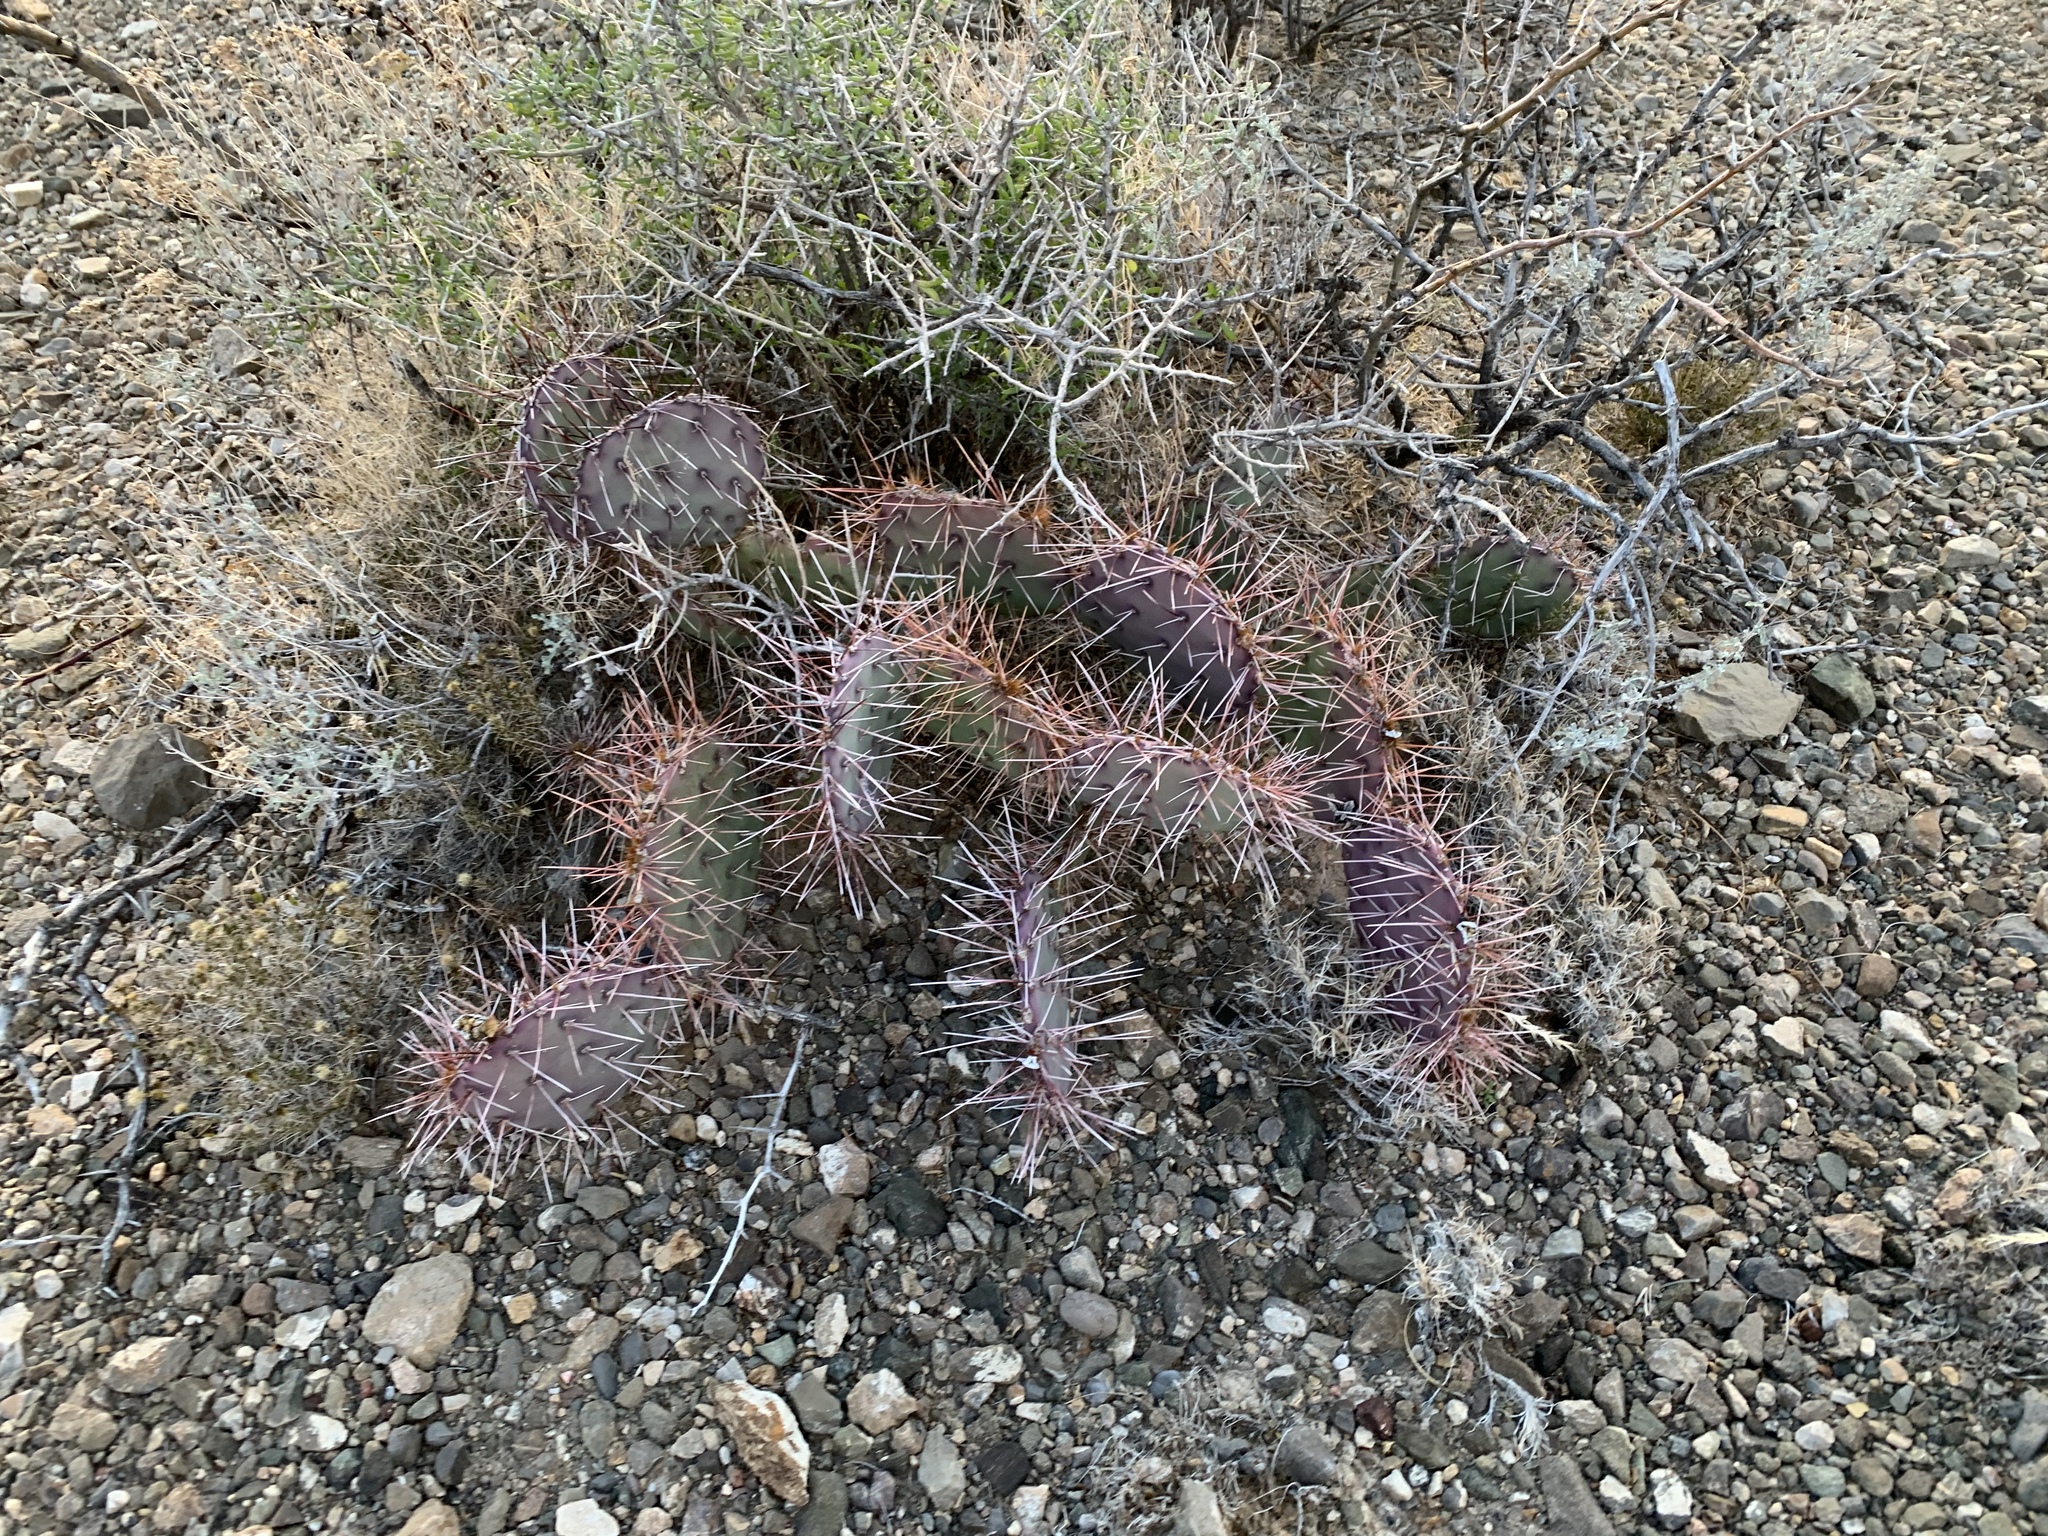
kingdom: Plantae
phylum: Tracheophyta
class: Magnoliopsida
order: Caryophyllales
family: Cactaceae
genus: Opuntia
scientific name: Opuntia macrocentra
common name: Purple prickly-pear
